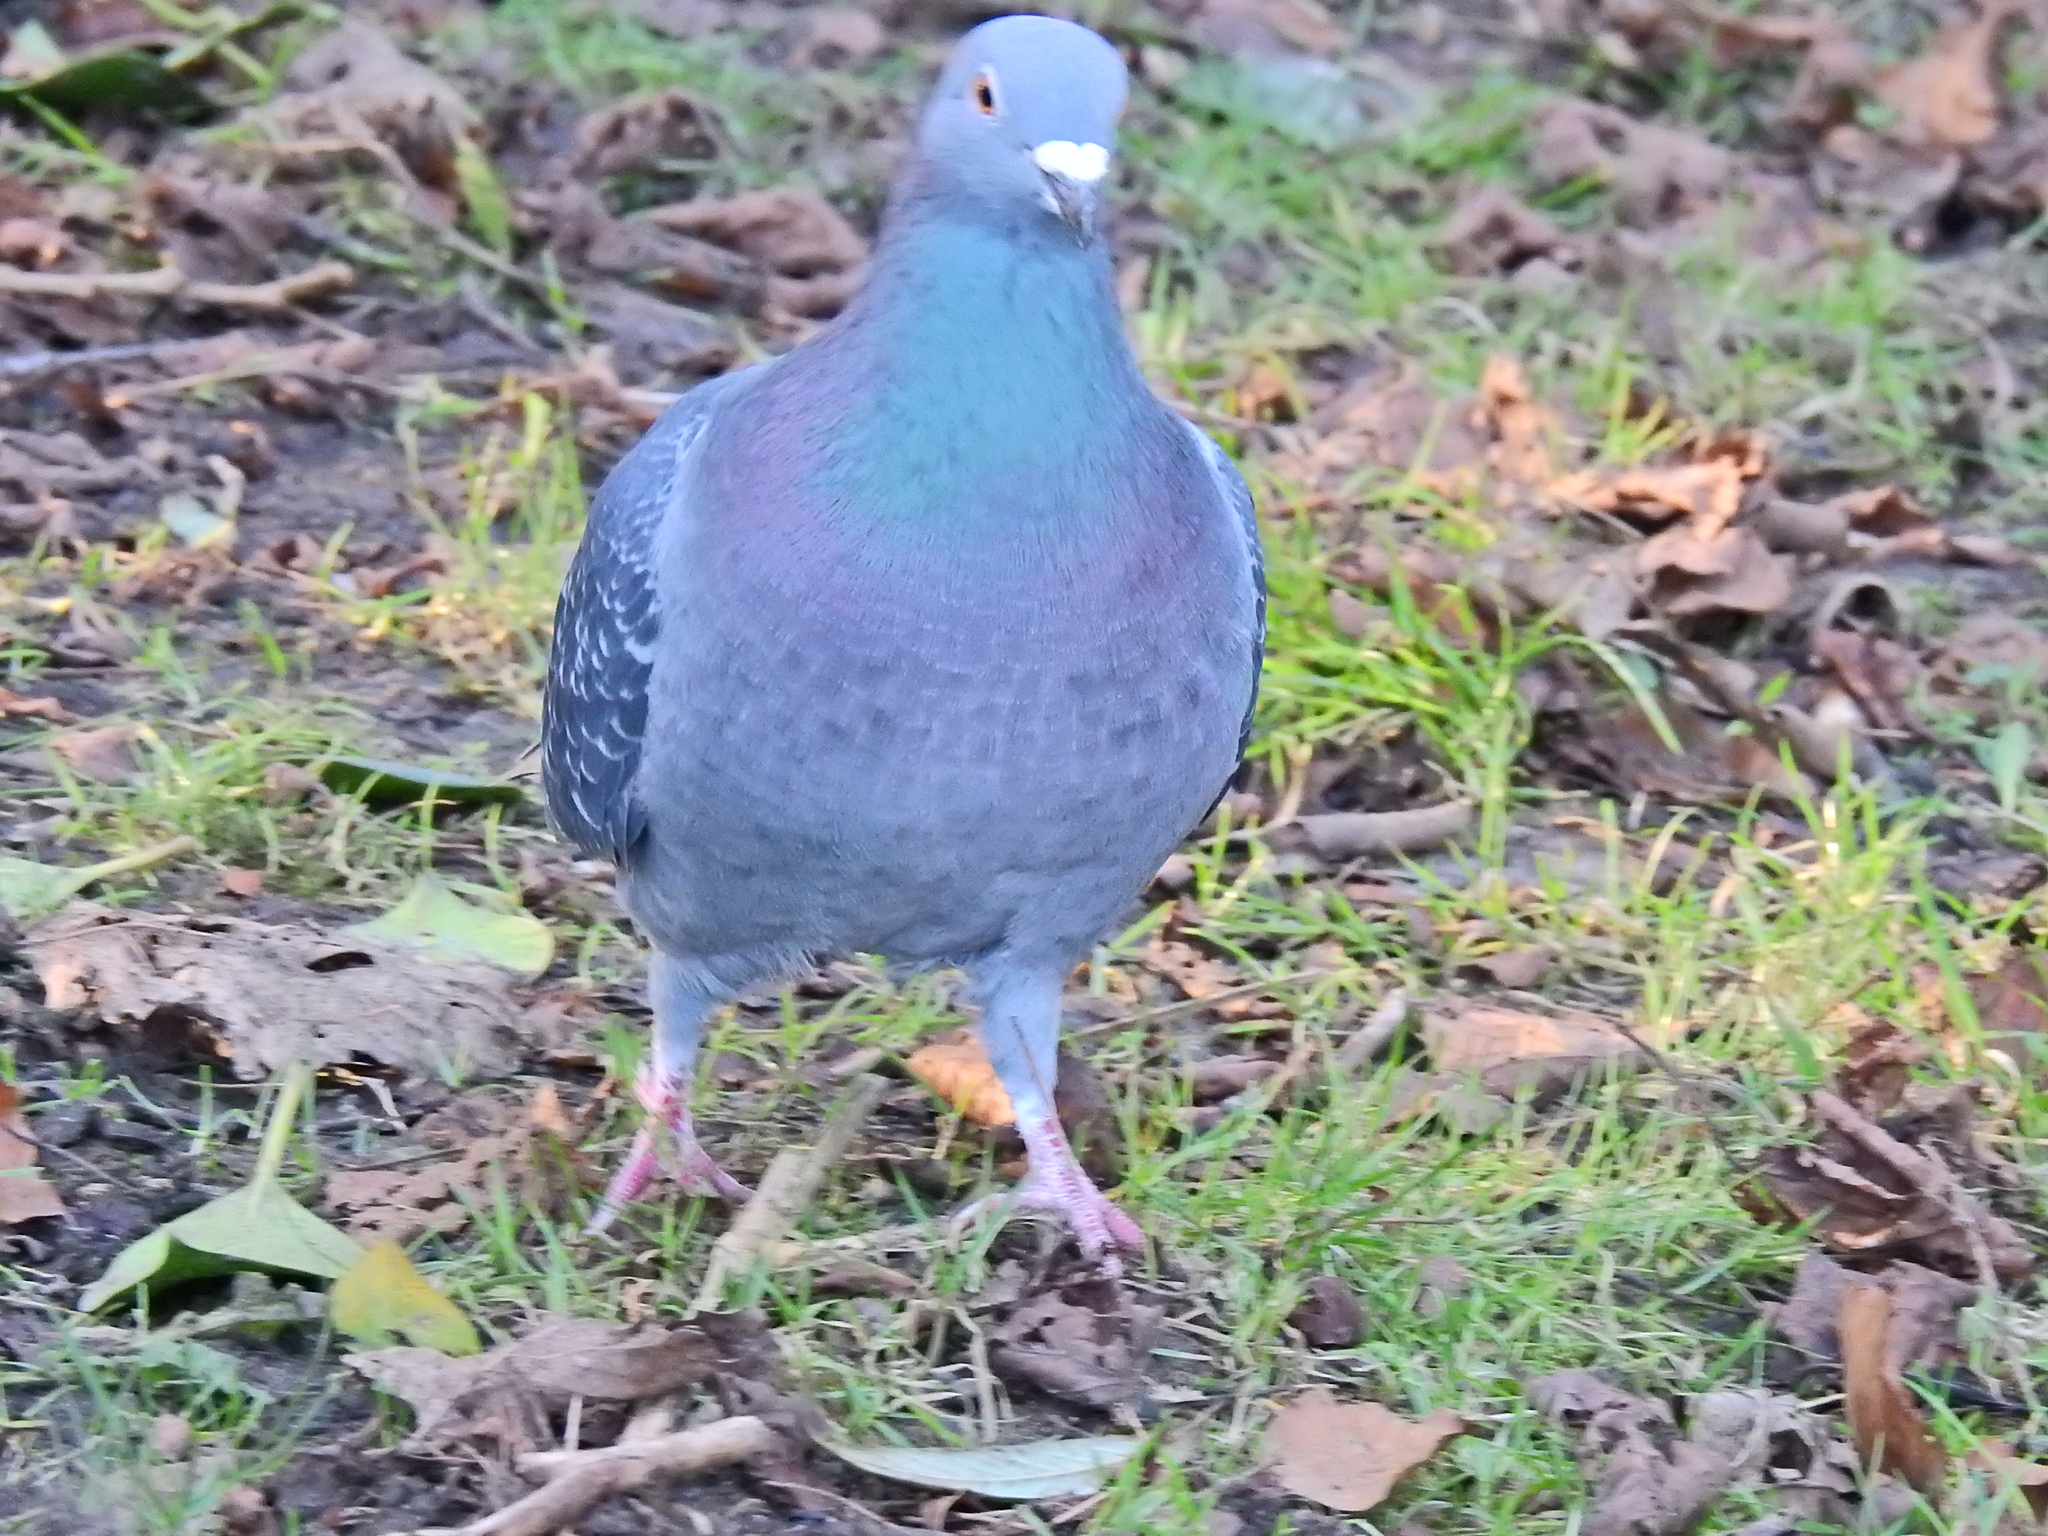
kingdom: Animalia
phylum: Chordata
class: Aves
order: Columbiformes
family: Columbidae
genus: Columba
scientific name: Columba livia
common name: Rock pigeon
